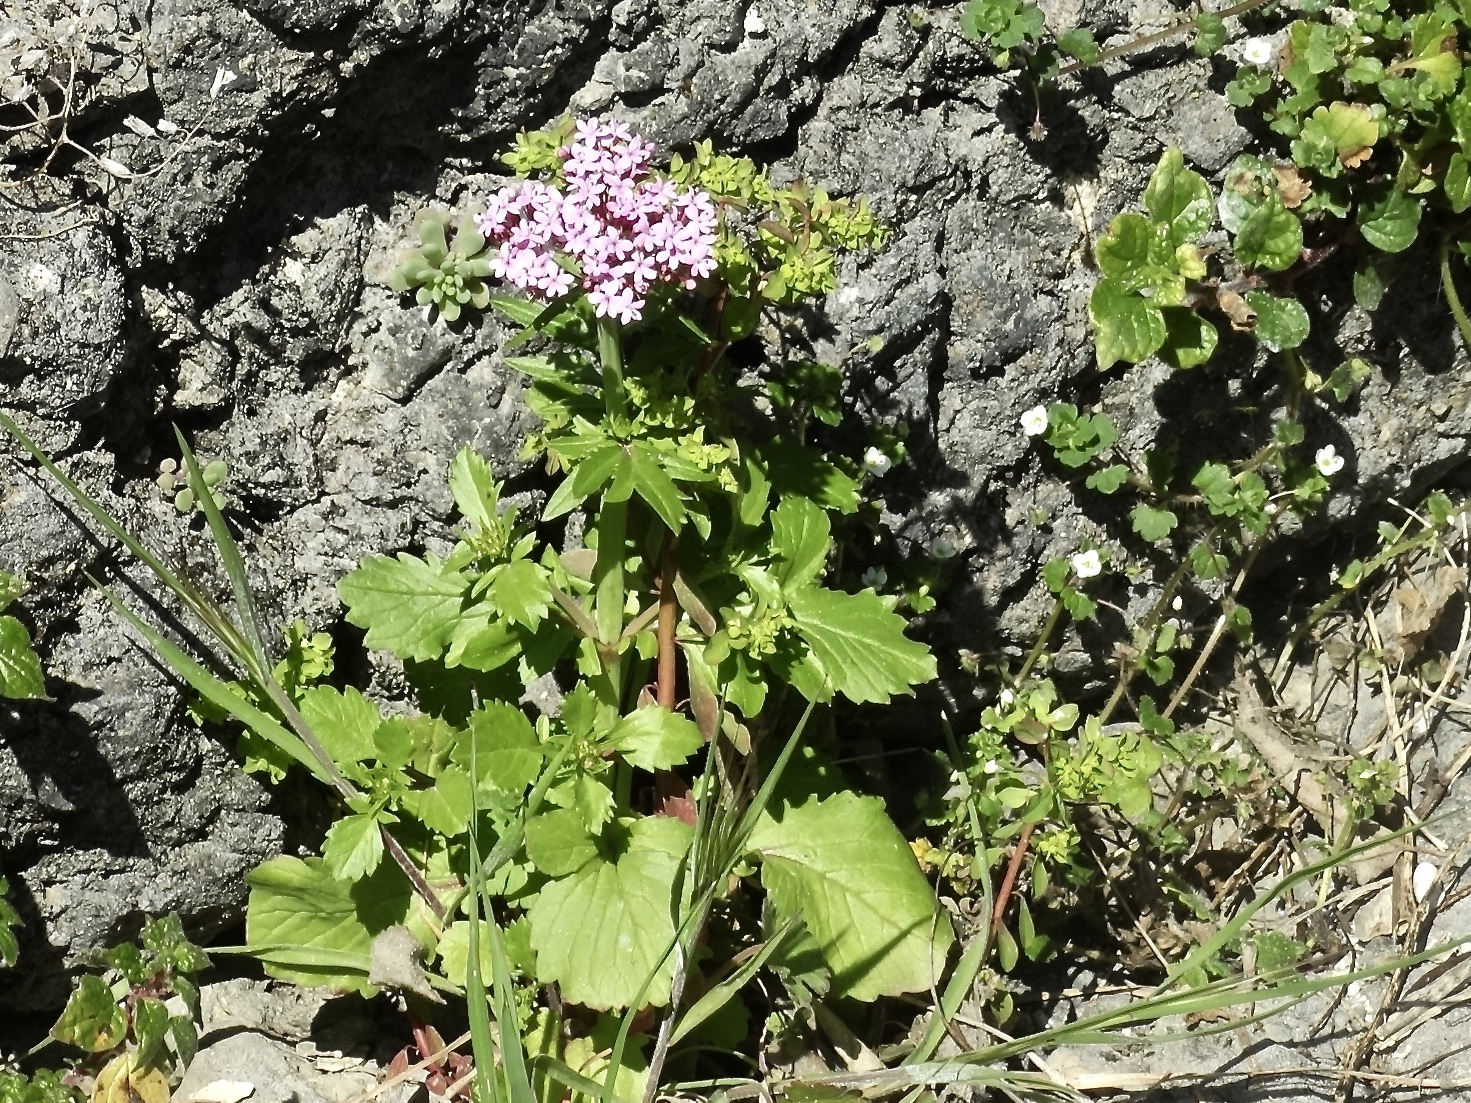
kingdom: Plantae
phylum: Tracheophyta
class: Magnoliopsida
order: Dipsacales
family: Caprifoliaceae
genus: Centranthus
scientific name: Centranthus calcitrapae
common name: Annual valerian
